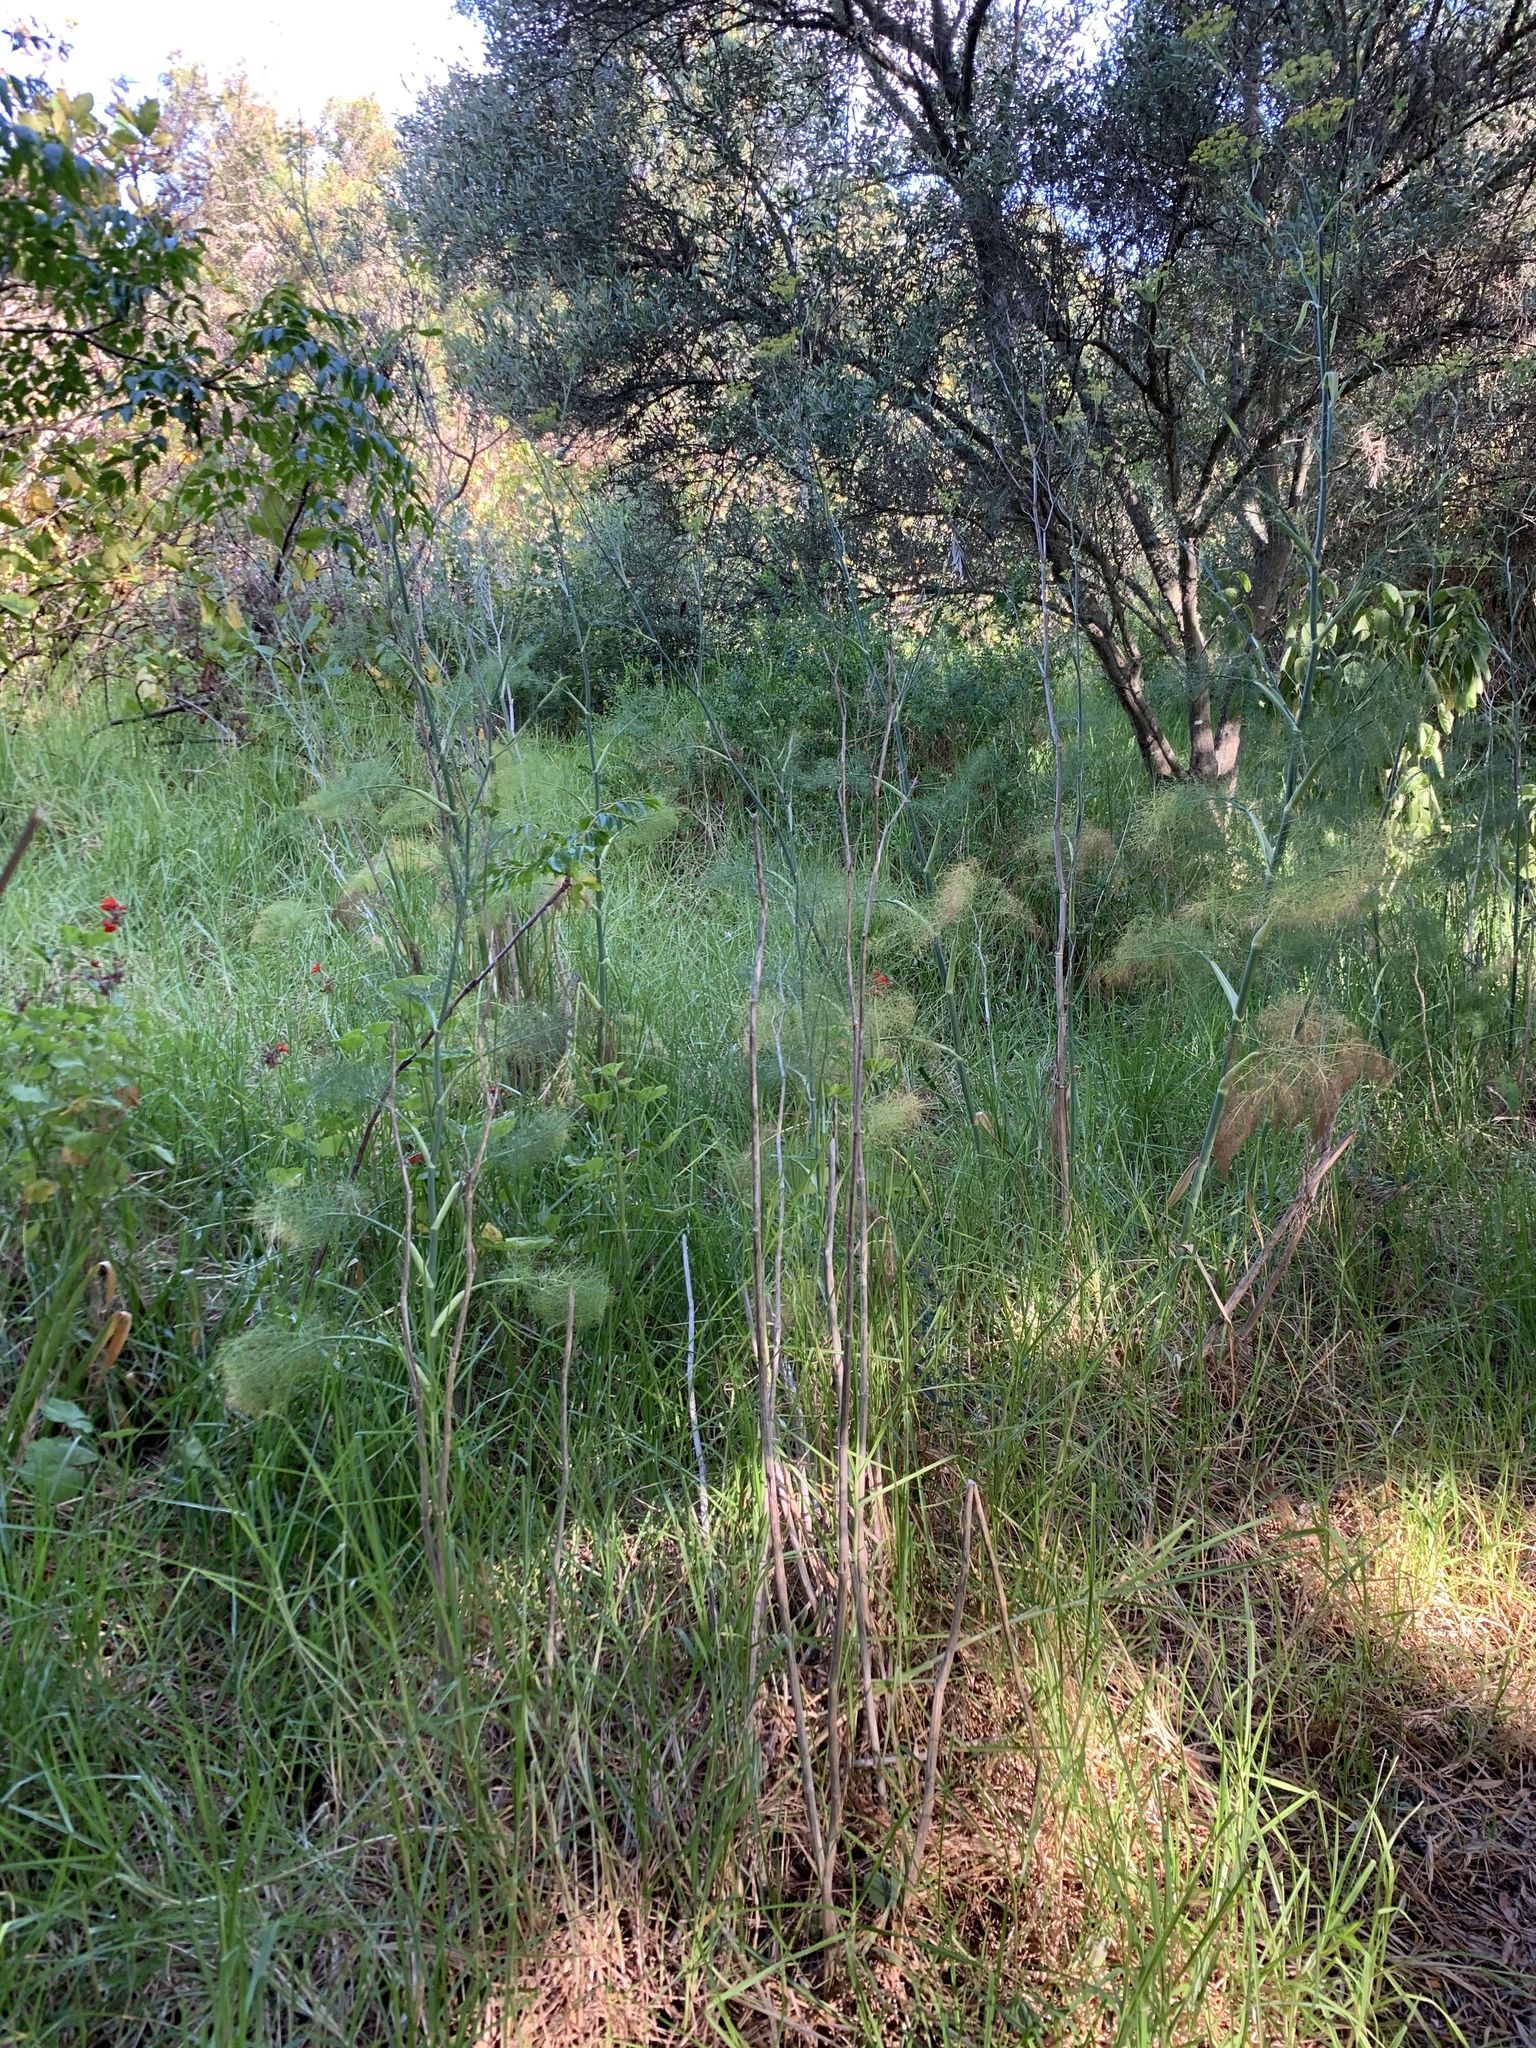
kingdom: Plantae
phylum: Tracheophyta
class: Magnoliopsida
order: Apiales
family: Apiaceae
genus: Foeniculum
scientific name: Foeniculum vulgare
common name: Fennel
